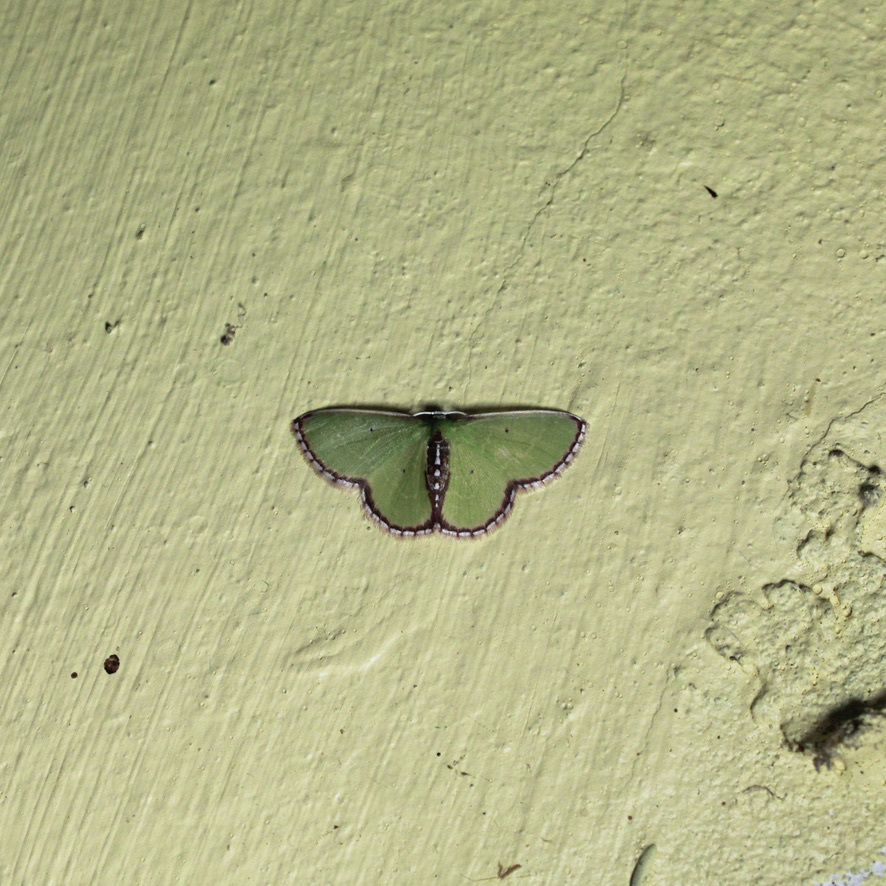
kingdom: Animalia
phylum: Arthropoda
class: Insecta
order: Lepidoptera
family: Geometridae
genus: Synchlora
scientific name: Synchlora tenuimargo
